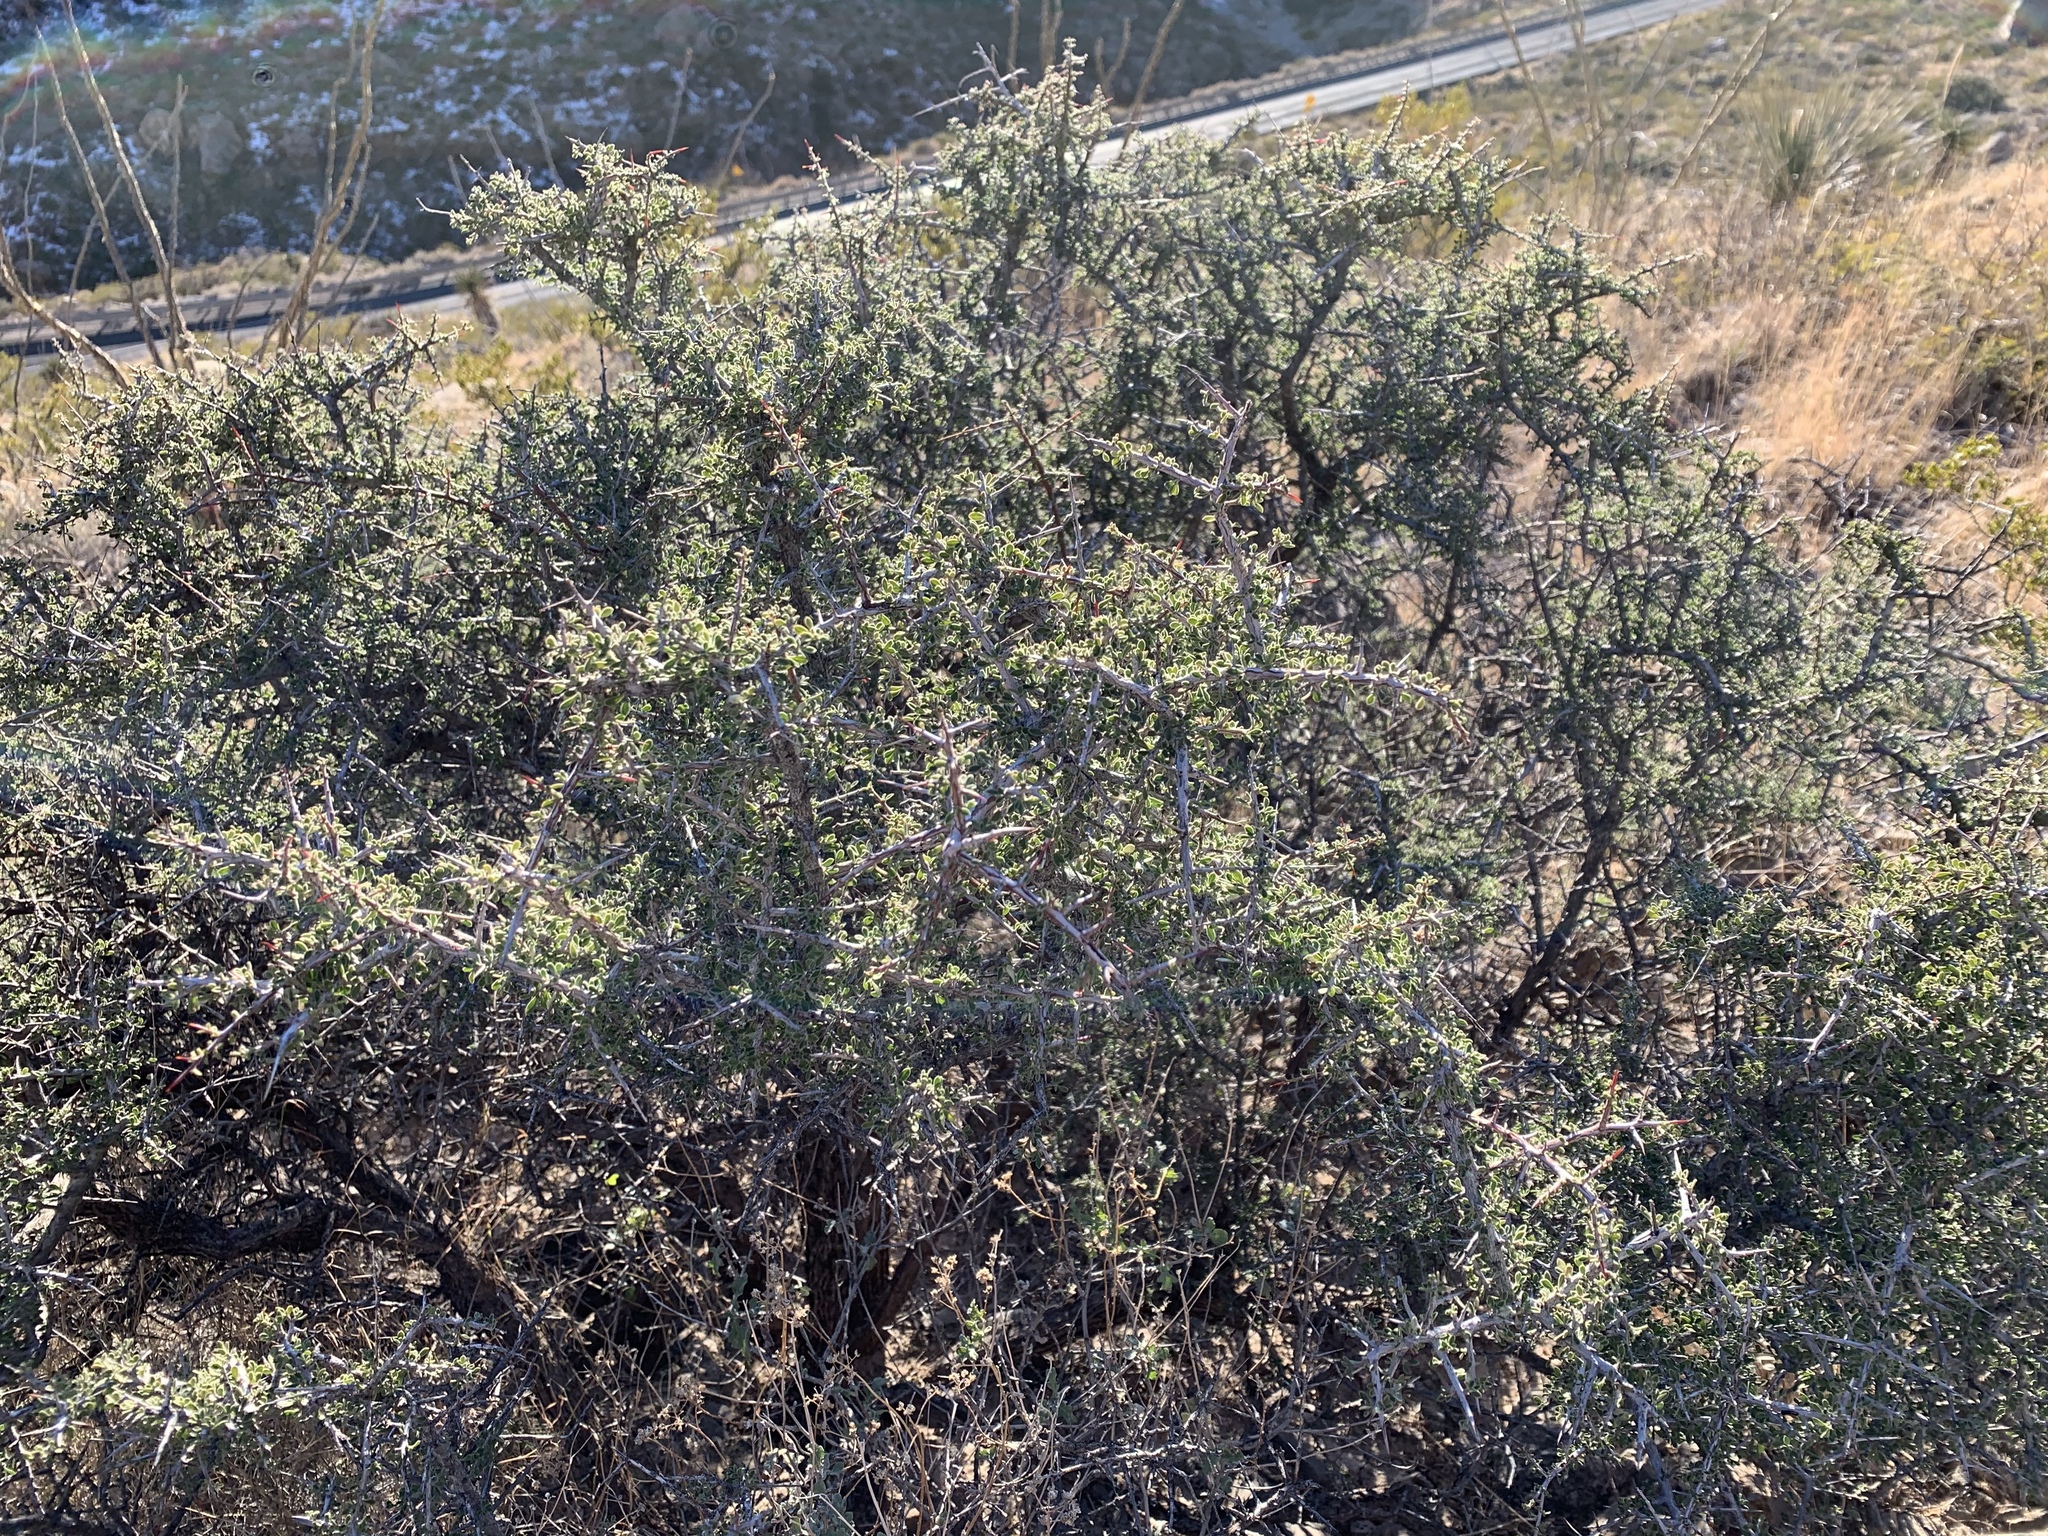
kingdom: Plantae
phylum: Tracheophyta
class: Magnoliopsida
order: Rosales
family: Rhamnaceae
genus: Condalia
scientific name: Condalia warnockii
